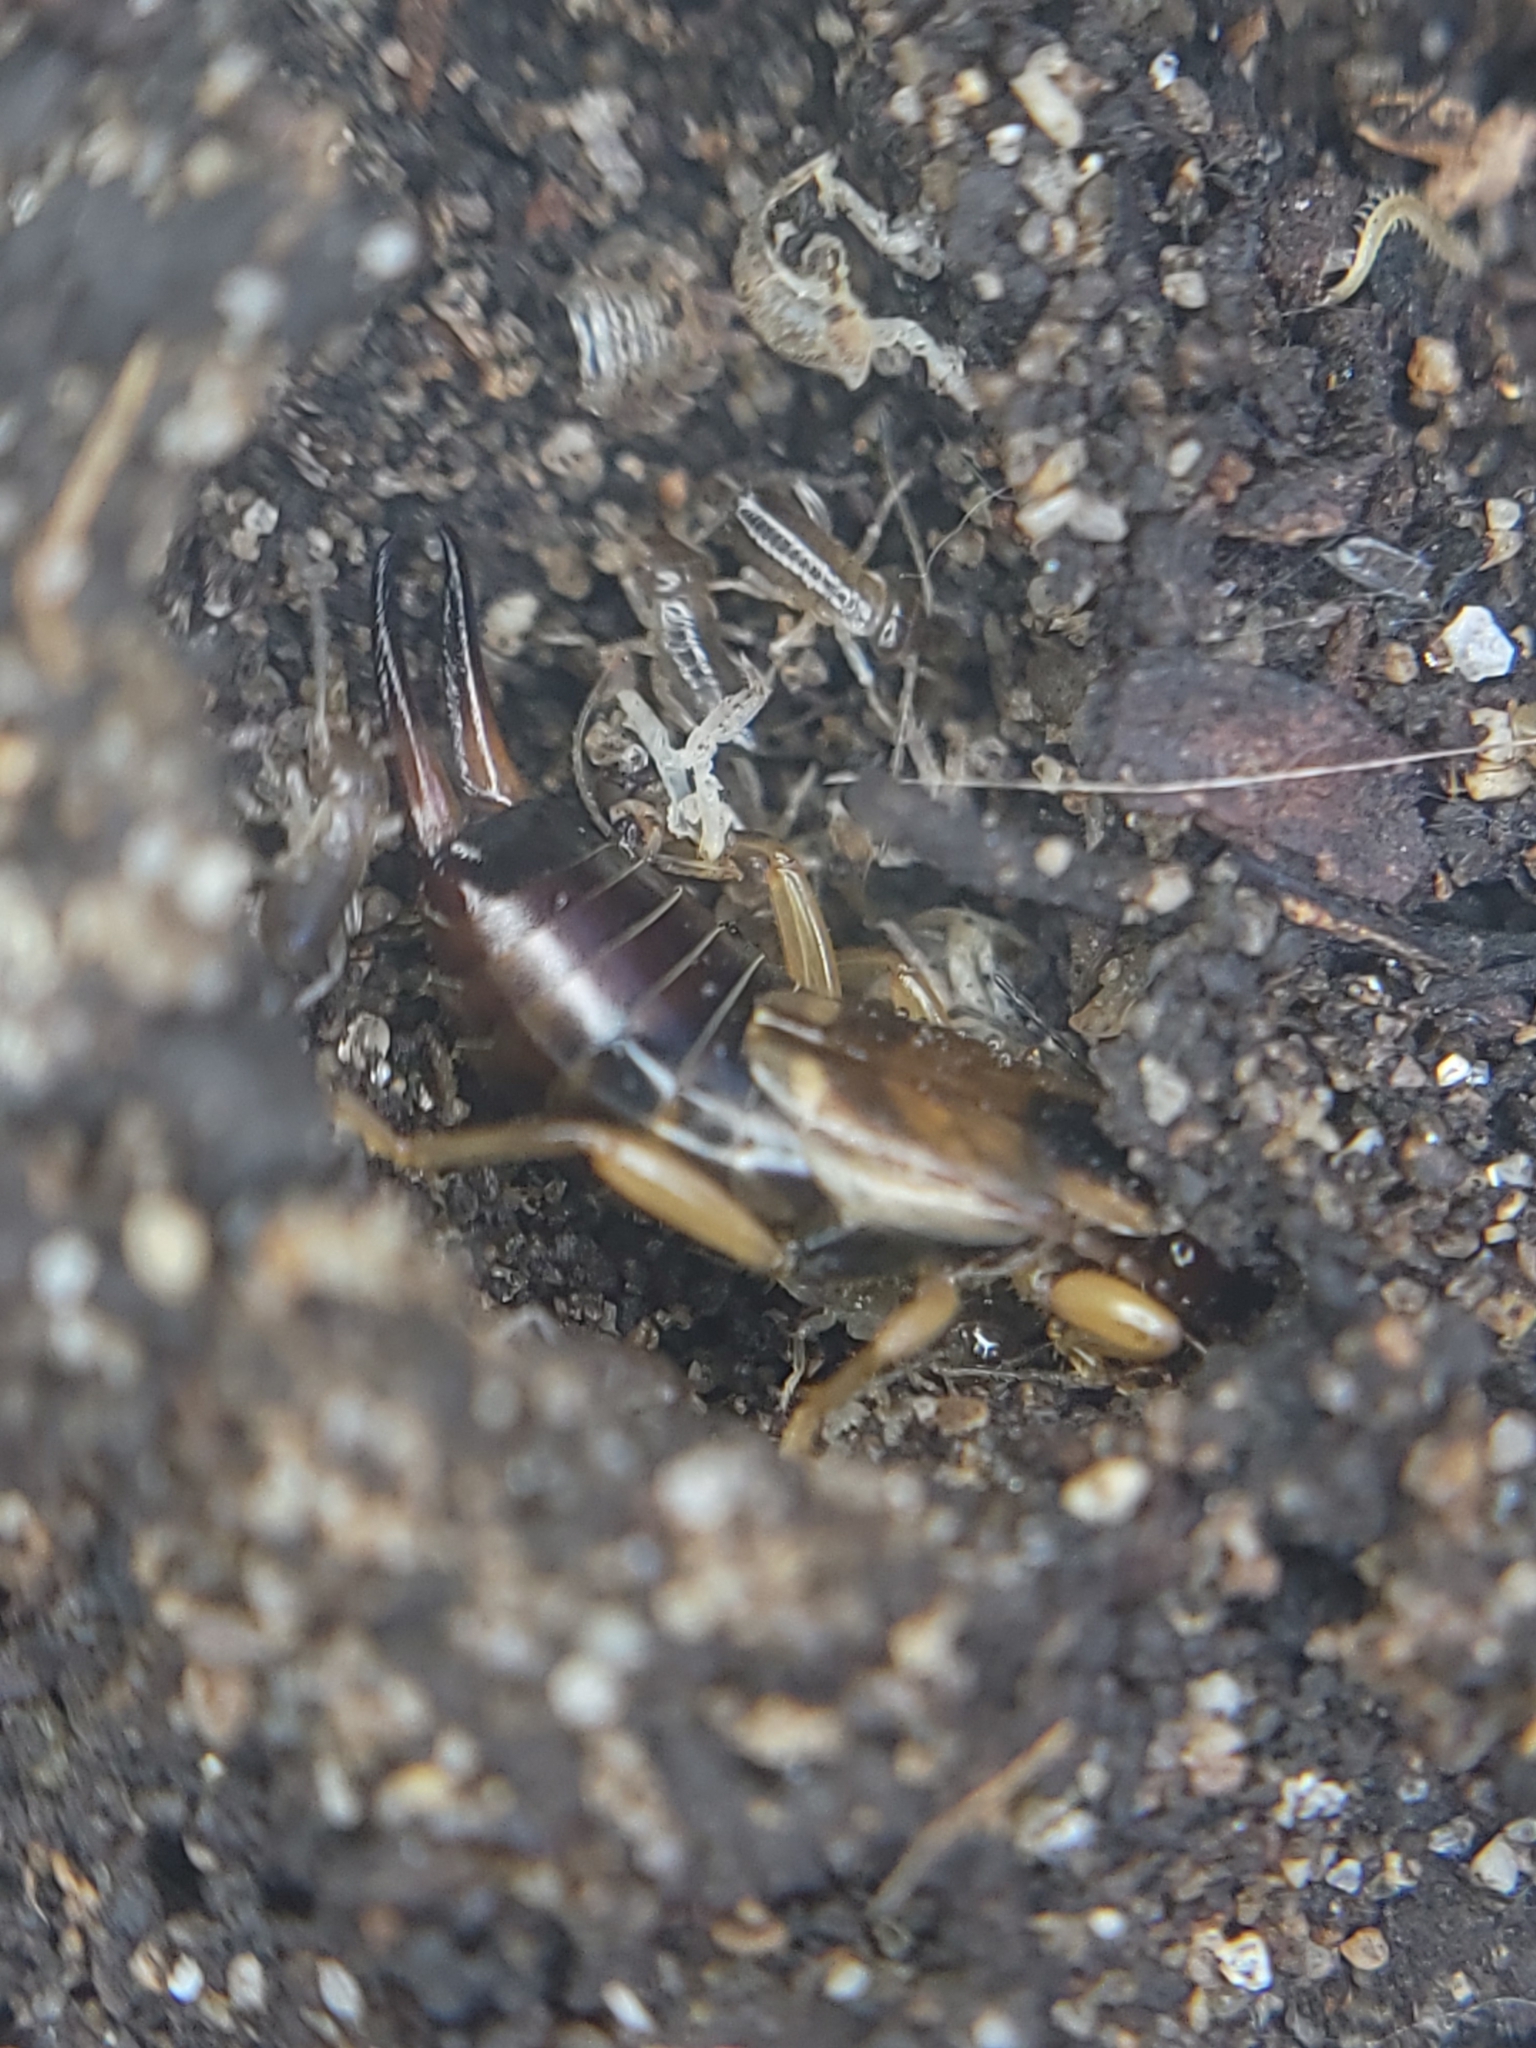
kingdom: Animalia
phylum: Arthropoda
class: Insecta
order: Dermaptera
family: Forficulidae
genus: Forficula
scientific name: Forficula dentata
